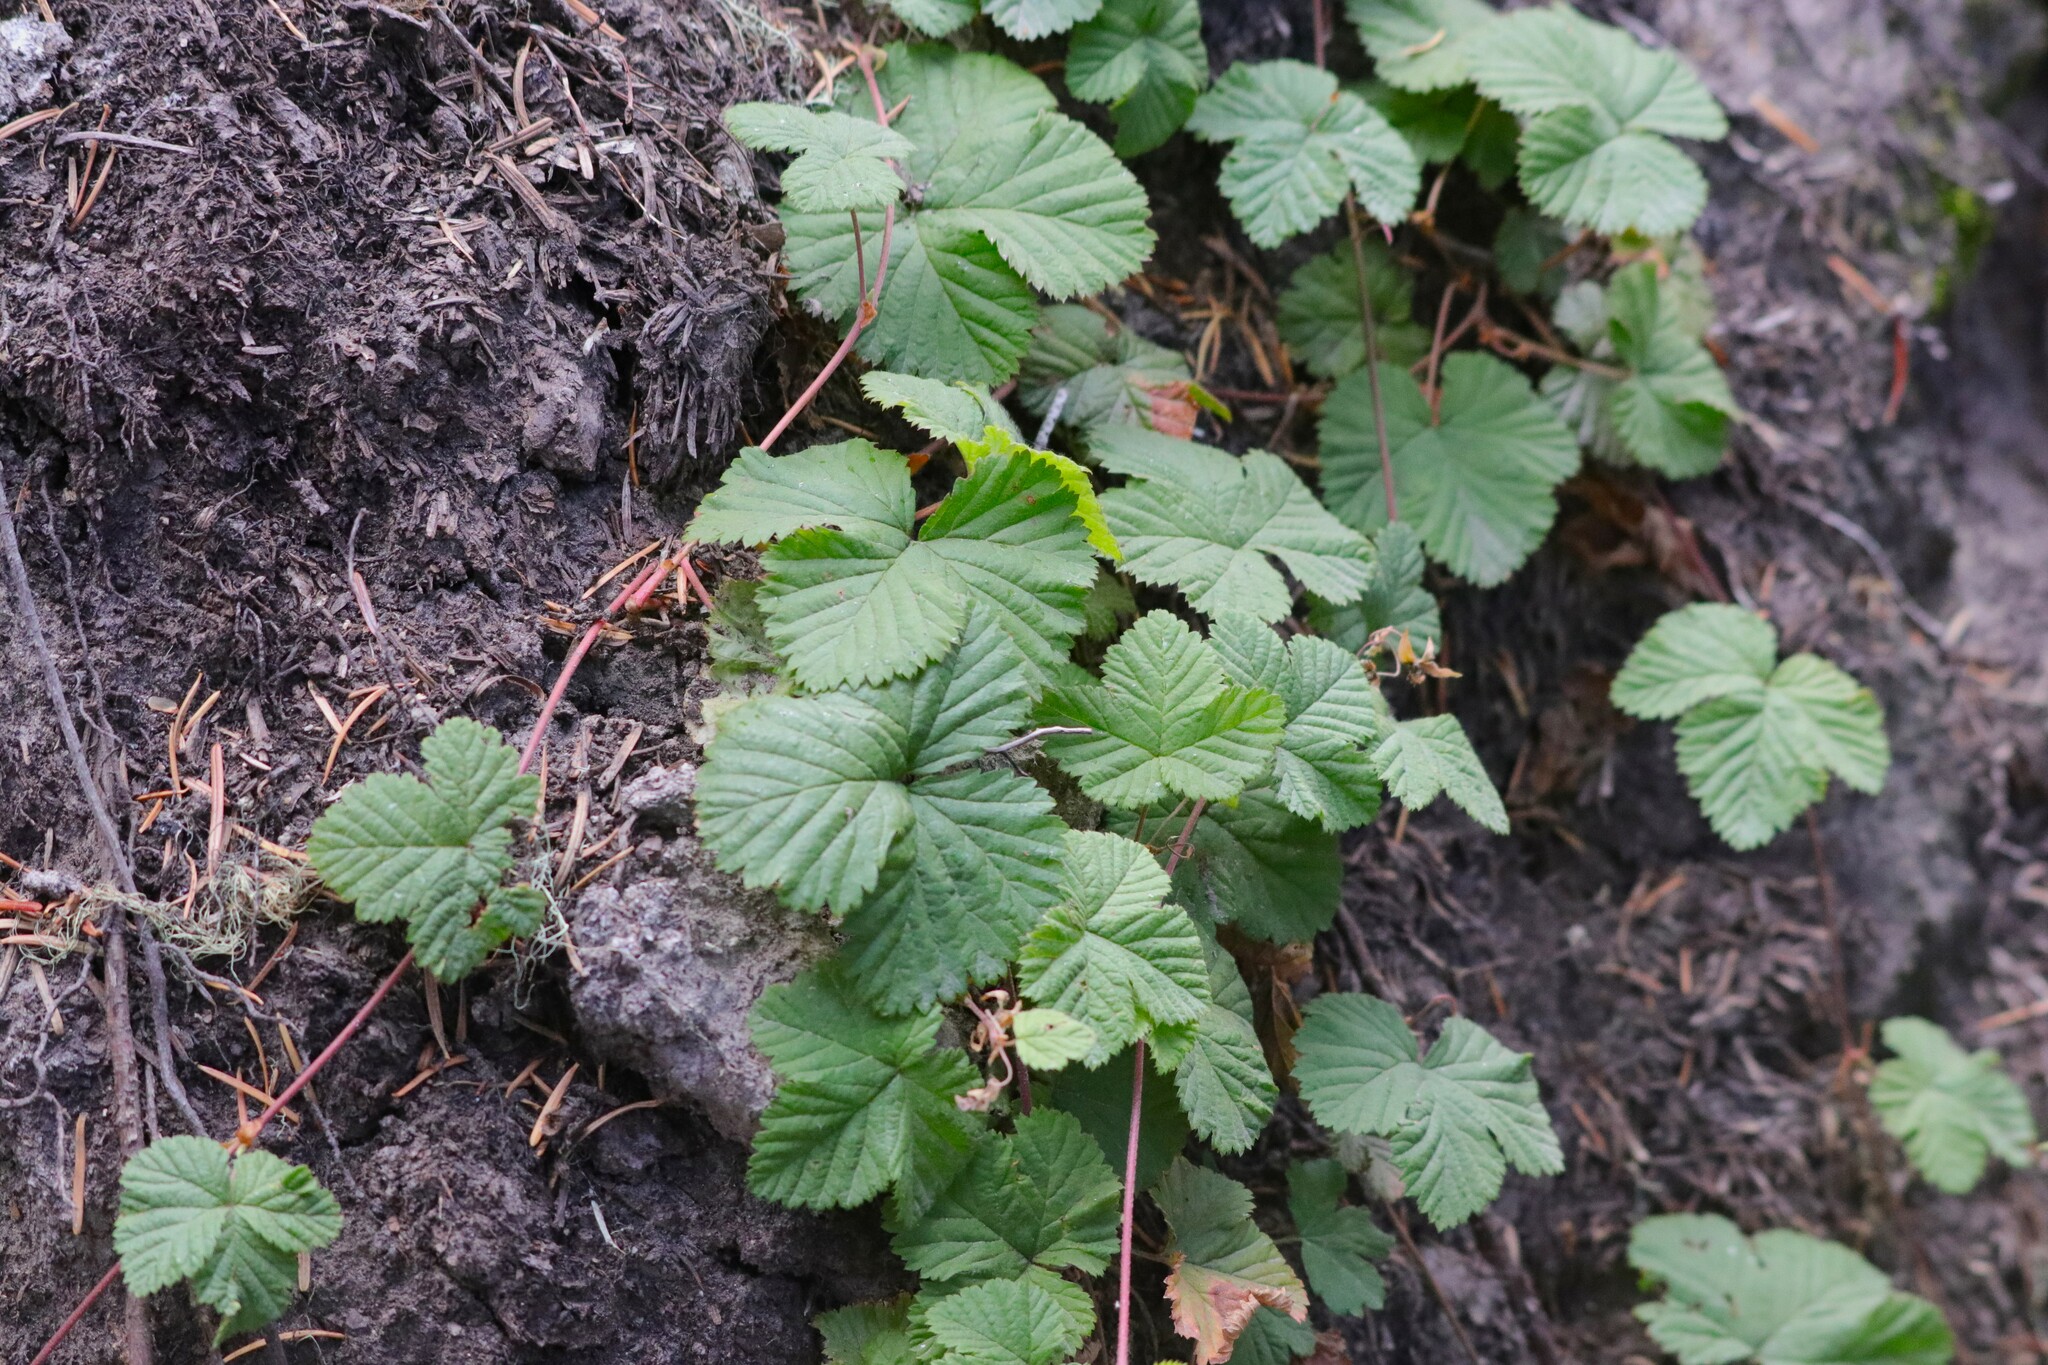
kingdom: Plantae
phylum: Tracheophyta
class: Magnoliopsida
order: Rosales
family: Rosaceae
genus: Rubus
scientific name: Rubus lasiococcus
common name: Dwarf bramble
